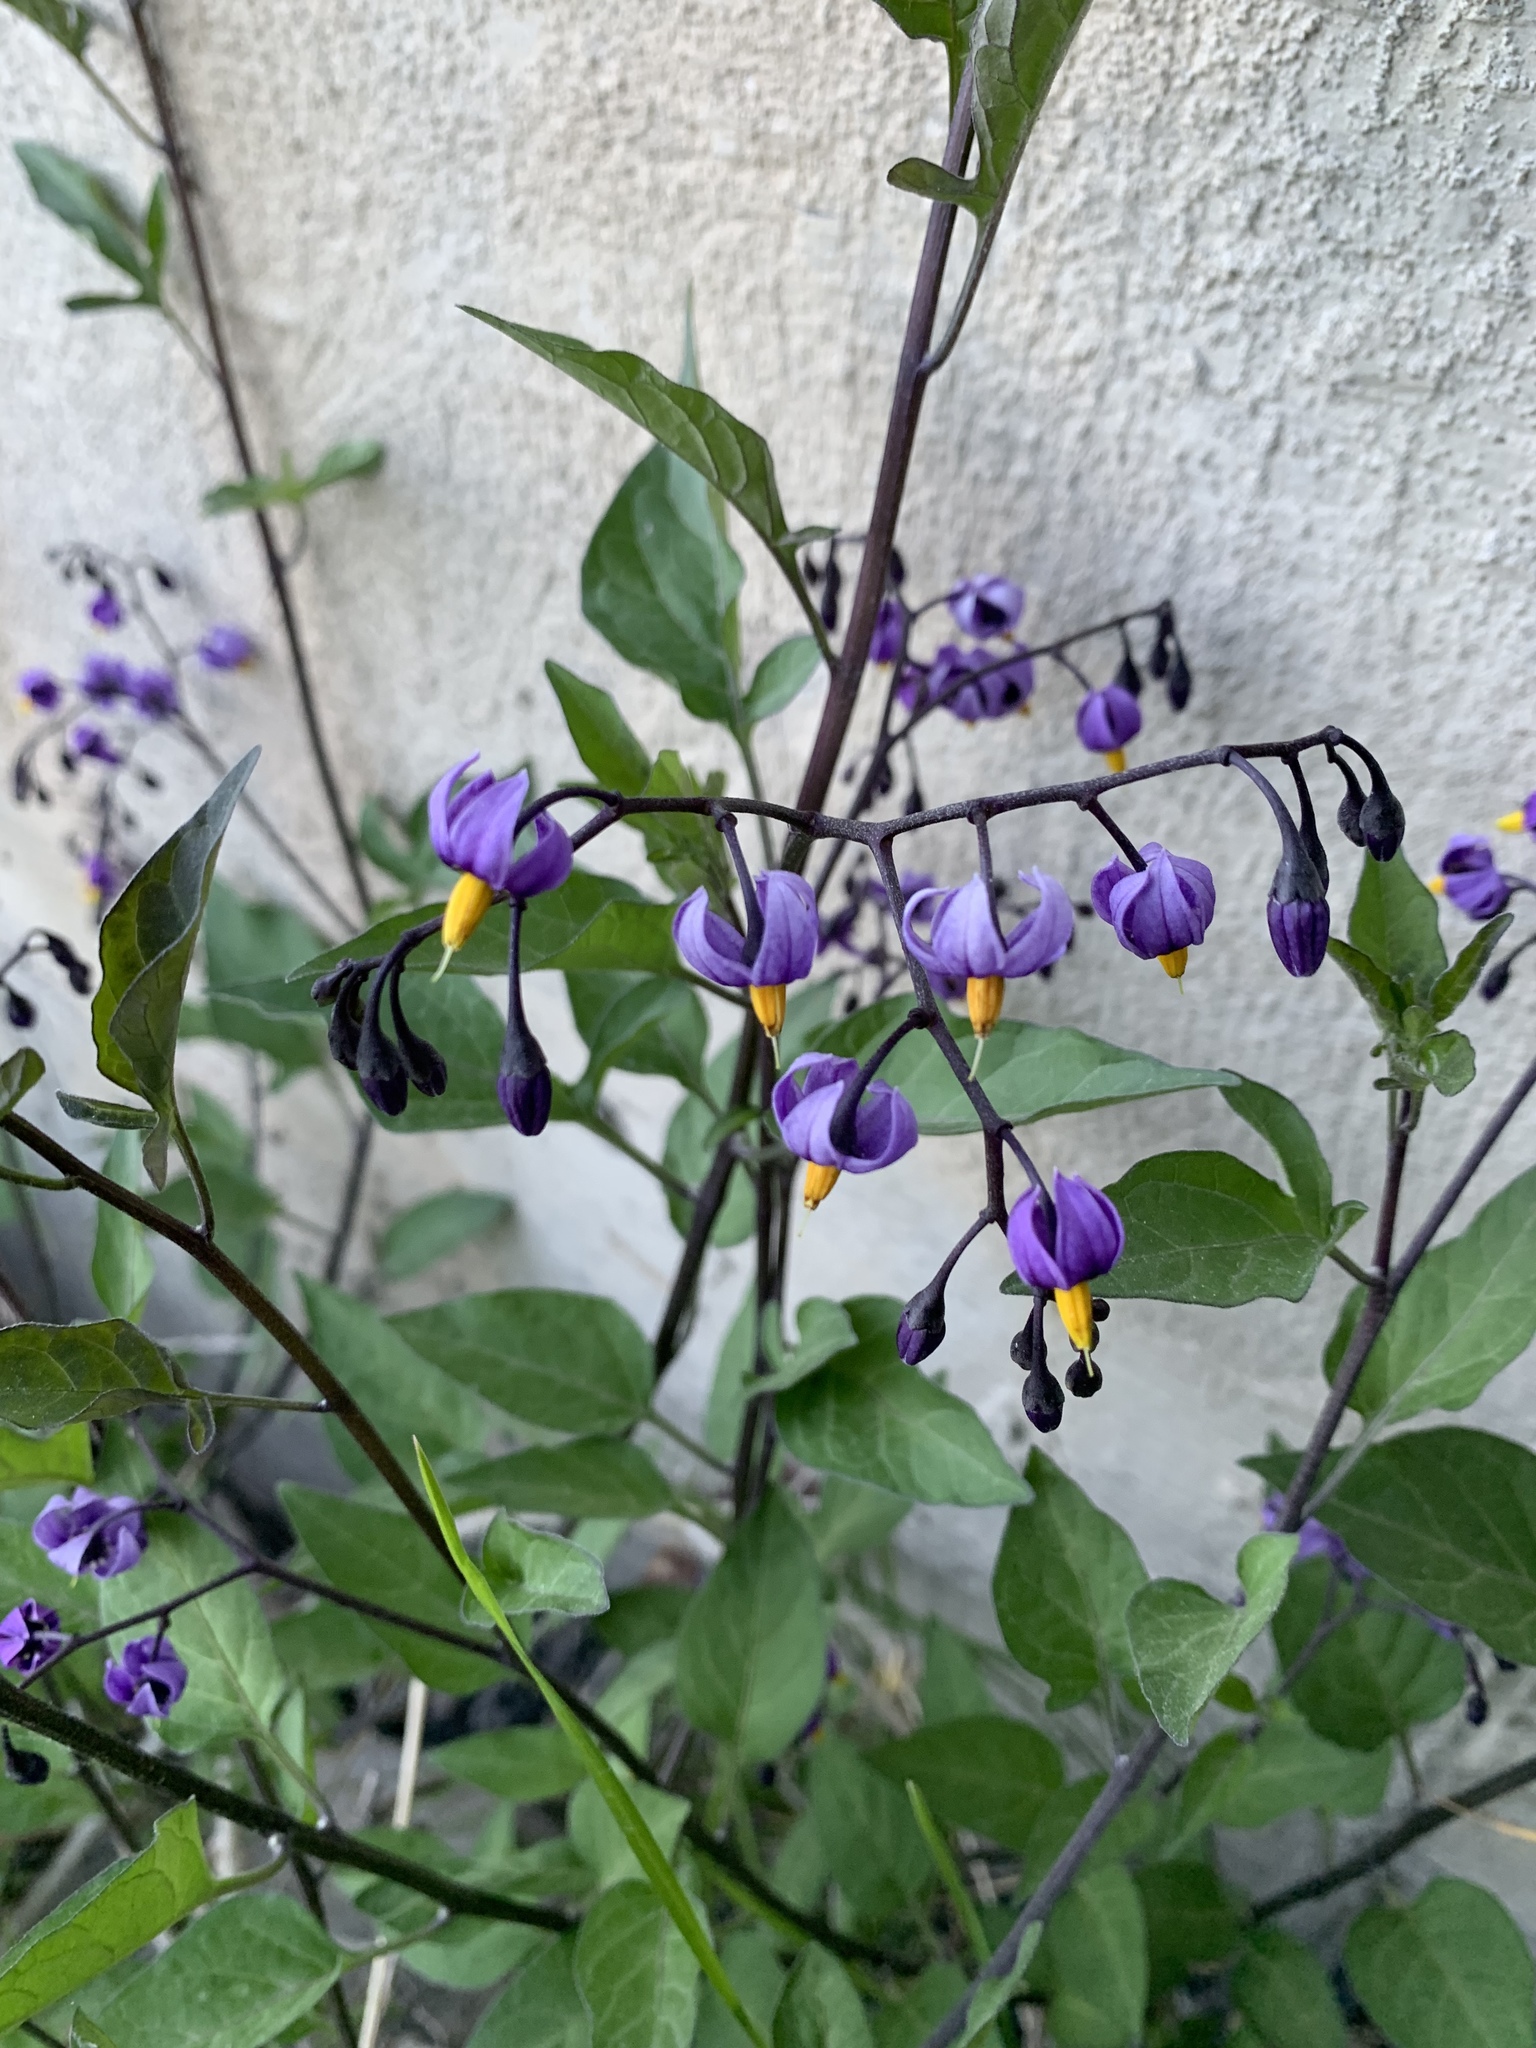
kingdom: Plantae
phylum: Tracheophyta
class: Magnoliopsida
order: Solanales
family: Solanaceae
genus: Solanum
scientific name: Solanum dulcamara
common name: Climbing nightshade
